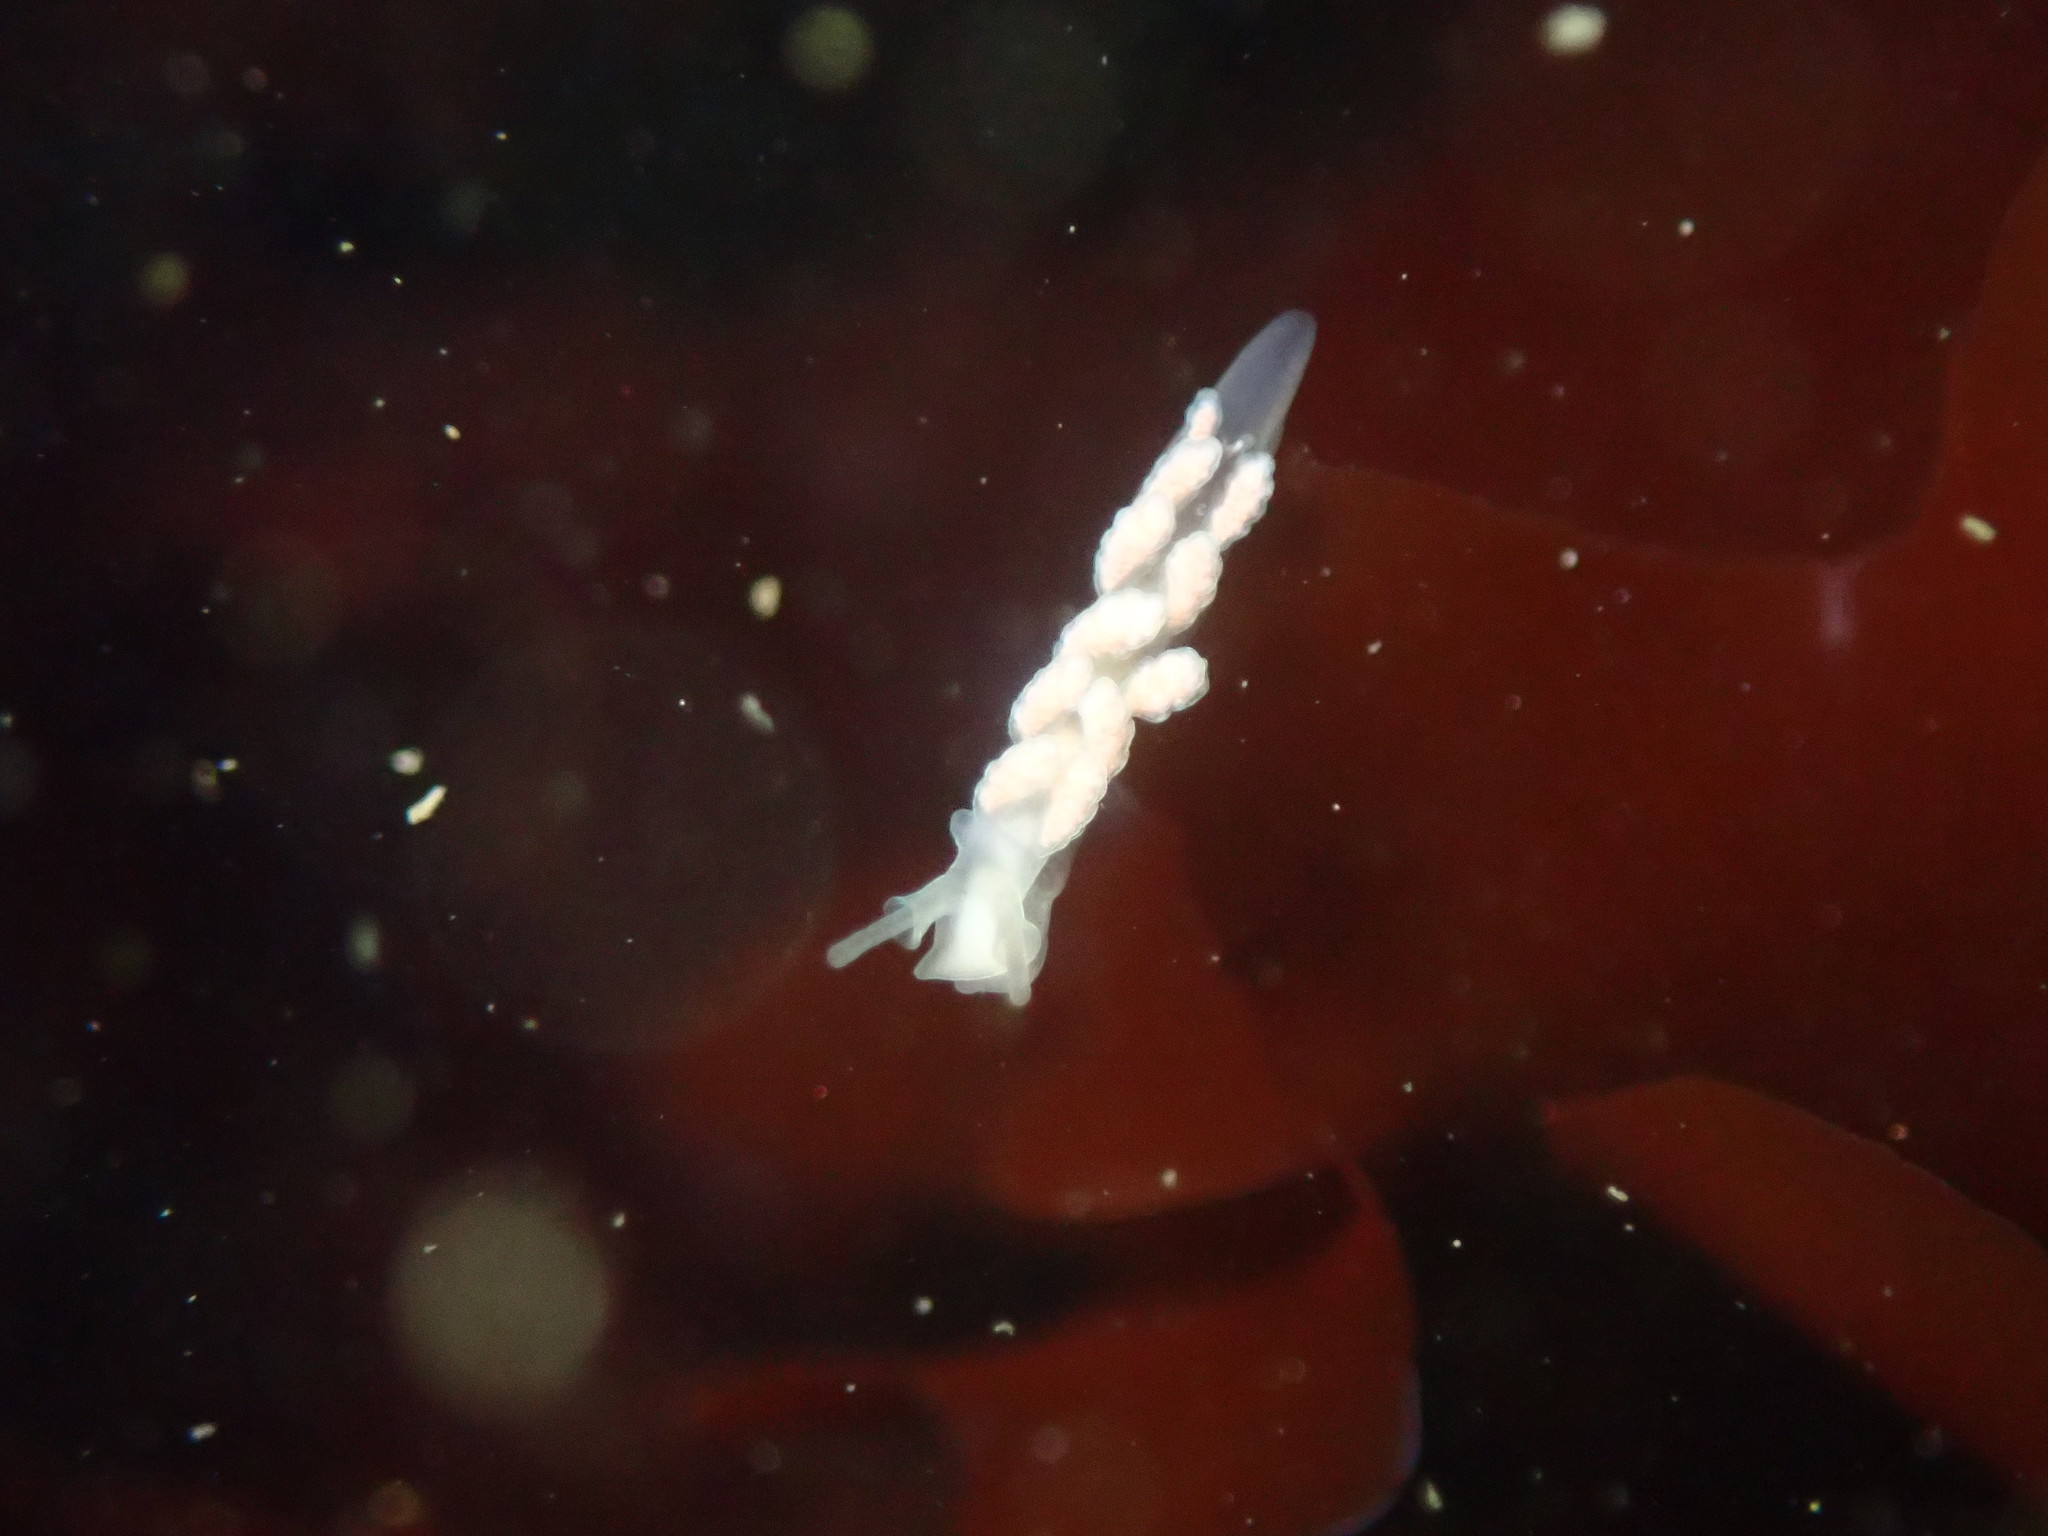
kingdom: Animalia
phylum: Mollusca
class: Gastropoda
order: Nudibranchia
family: Dotidae
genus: Doto
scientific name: Doto amyra
